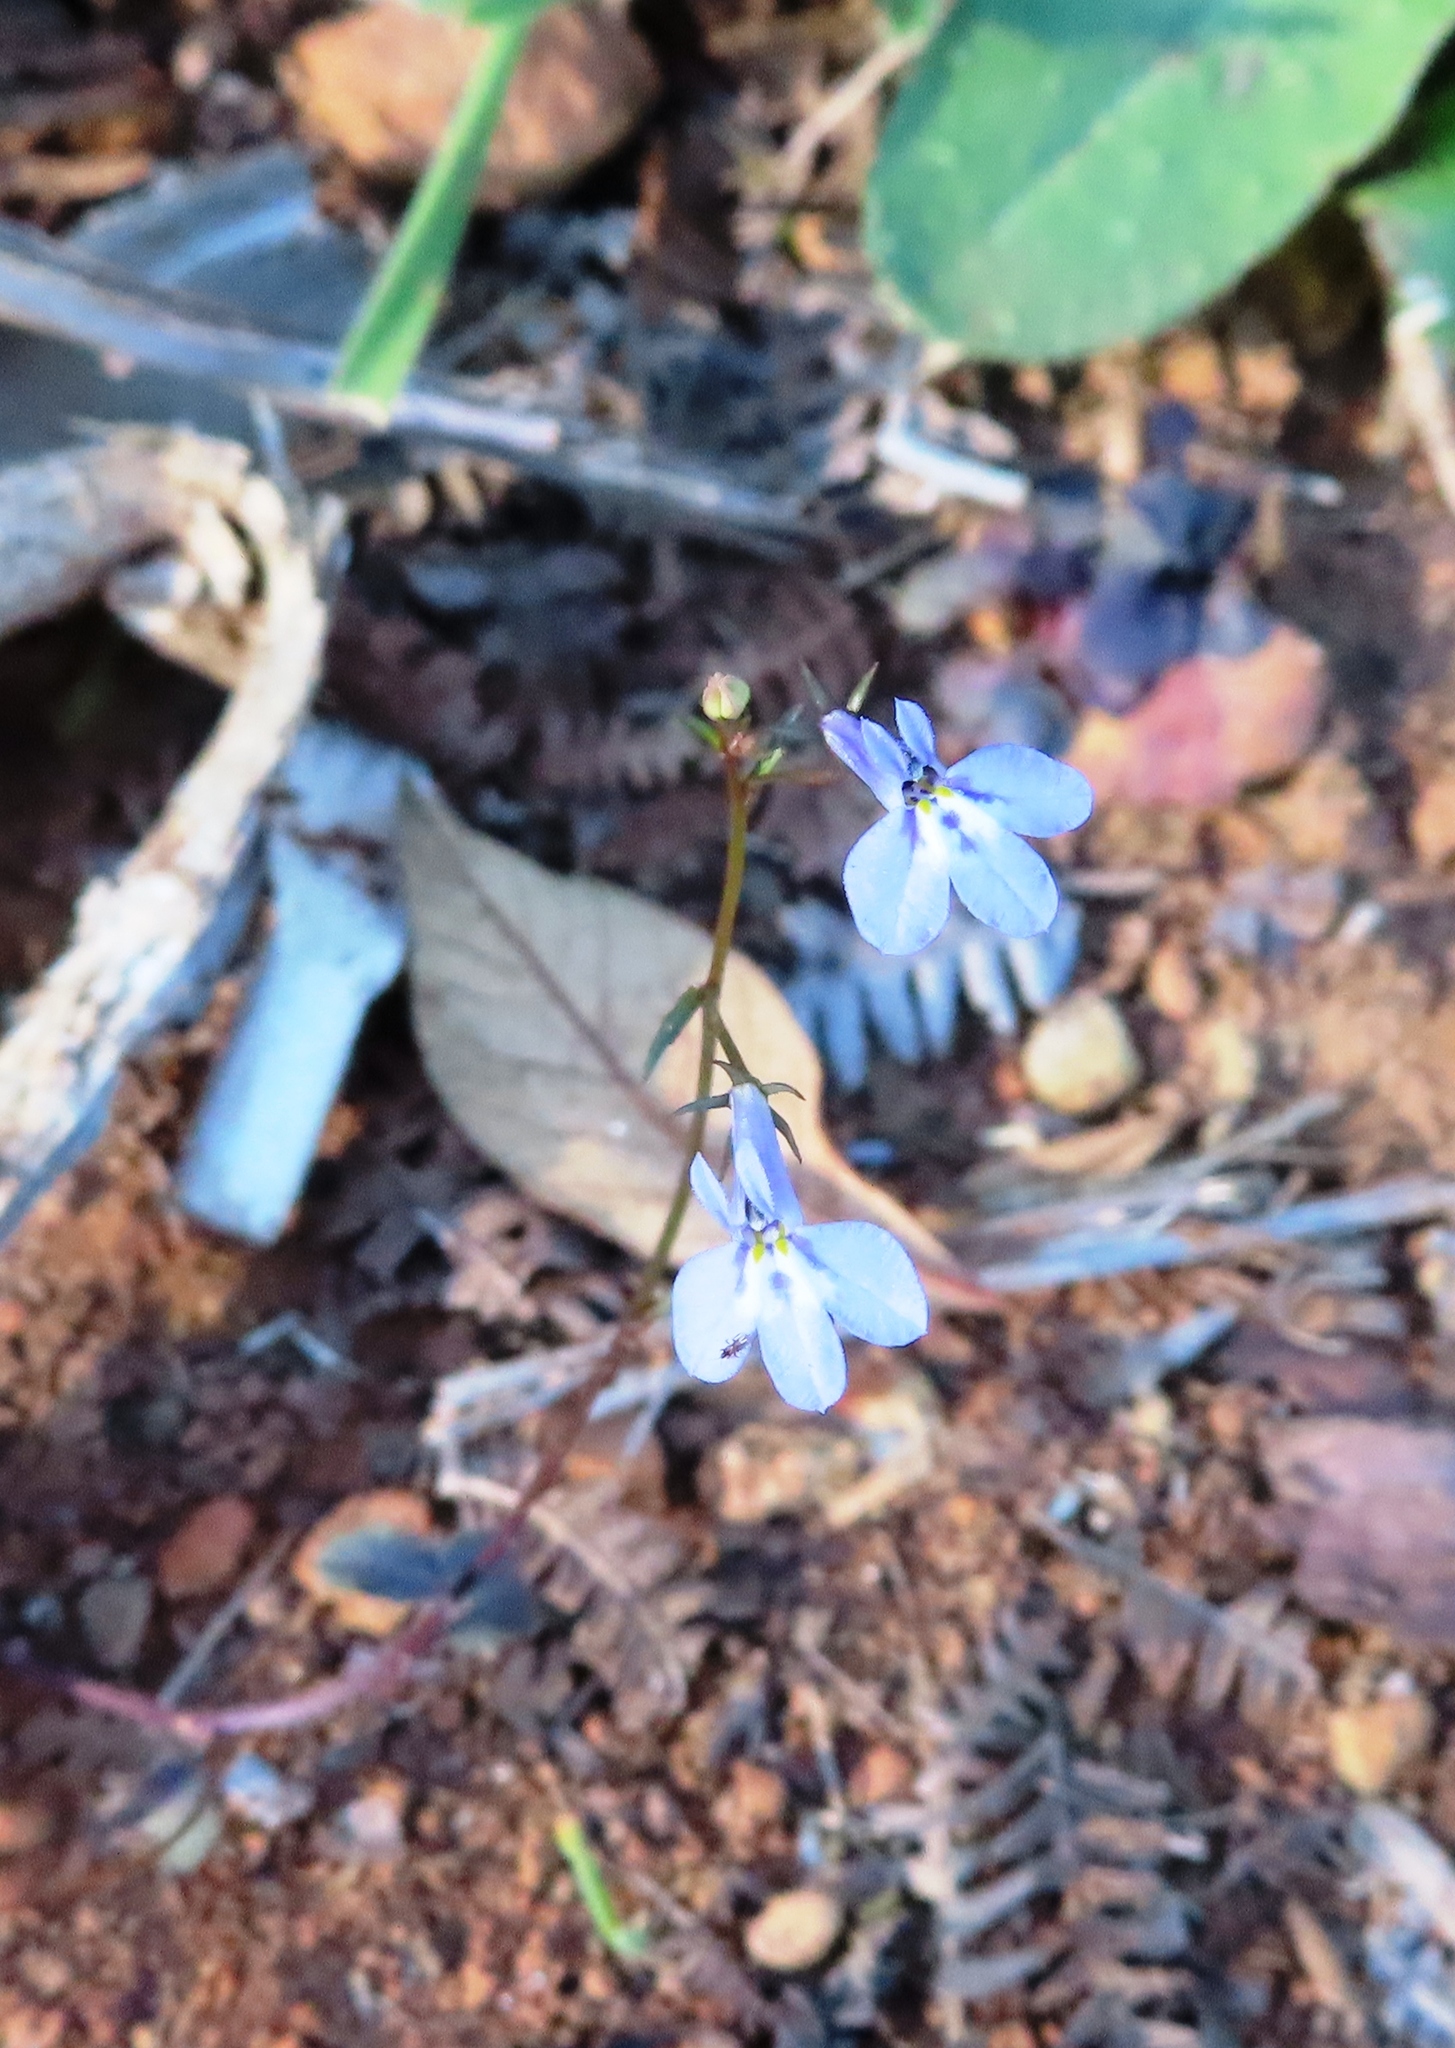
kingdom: Plantae
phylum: Tracheophyta
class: Magnoliopsida
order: Asterales
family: Campanulaceae
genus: Lobelia
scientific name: Lobelia erinus
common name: Edging lobelia
